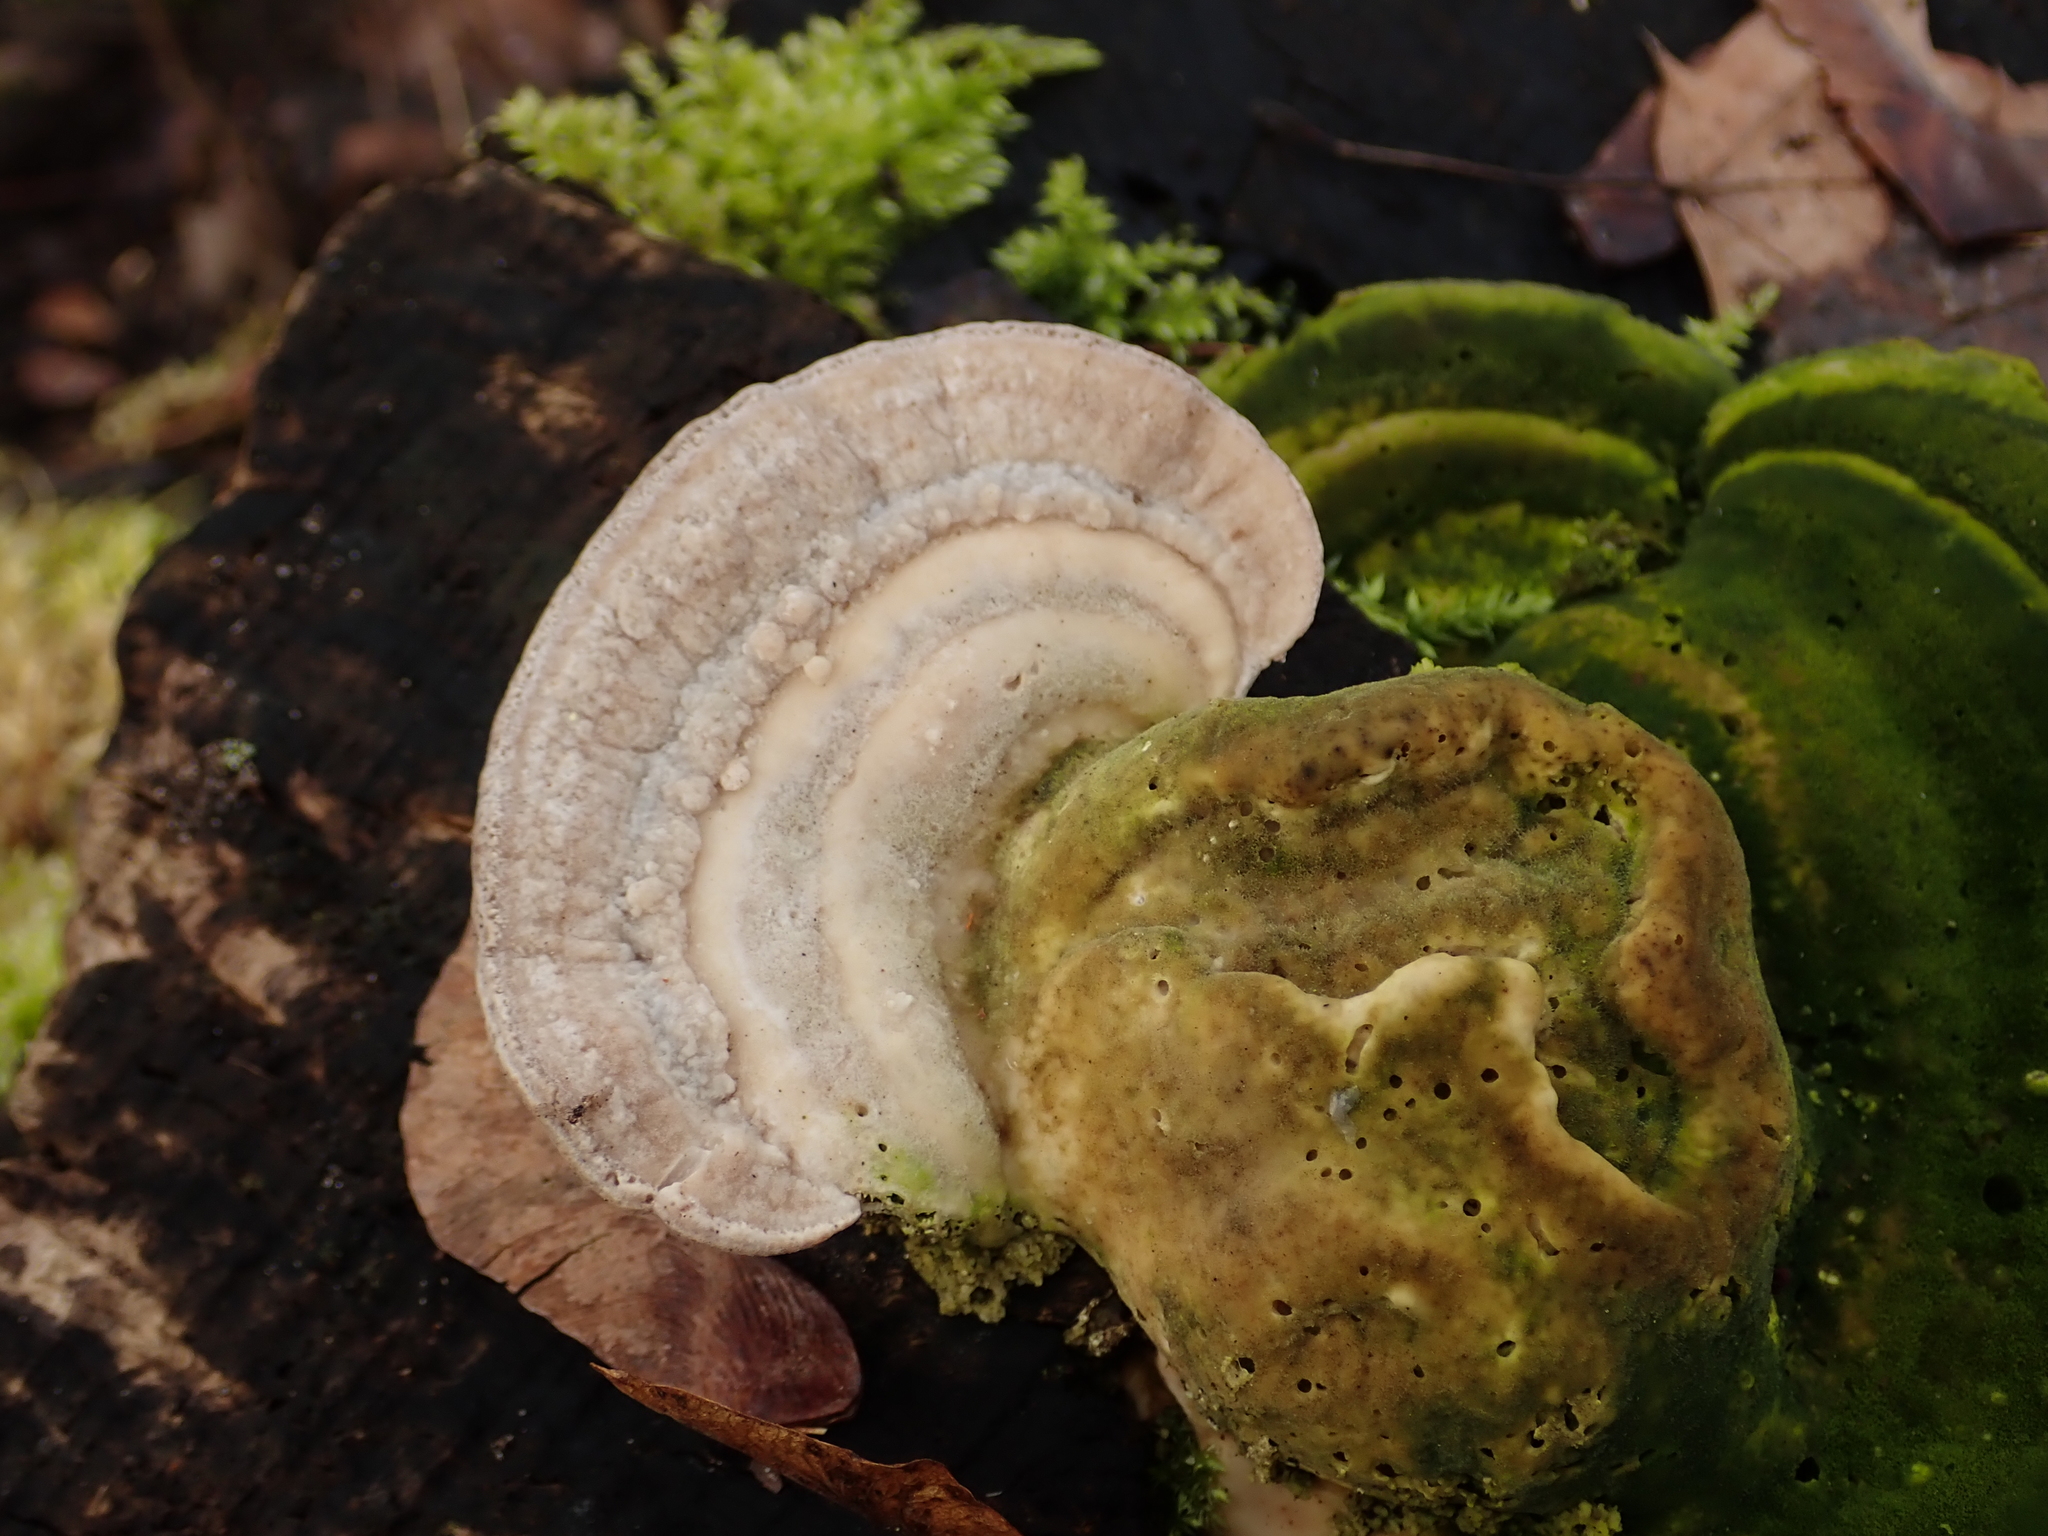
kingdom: Fungi
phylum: Basidiomycota
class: Agaricomycetes
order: Polyporales
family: Polyporaceae
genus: Trametes
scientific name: Trametes gibbosa
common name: Lumpy bracket
